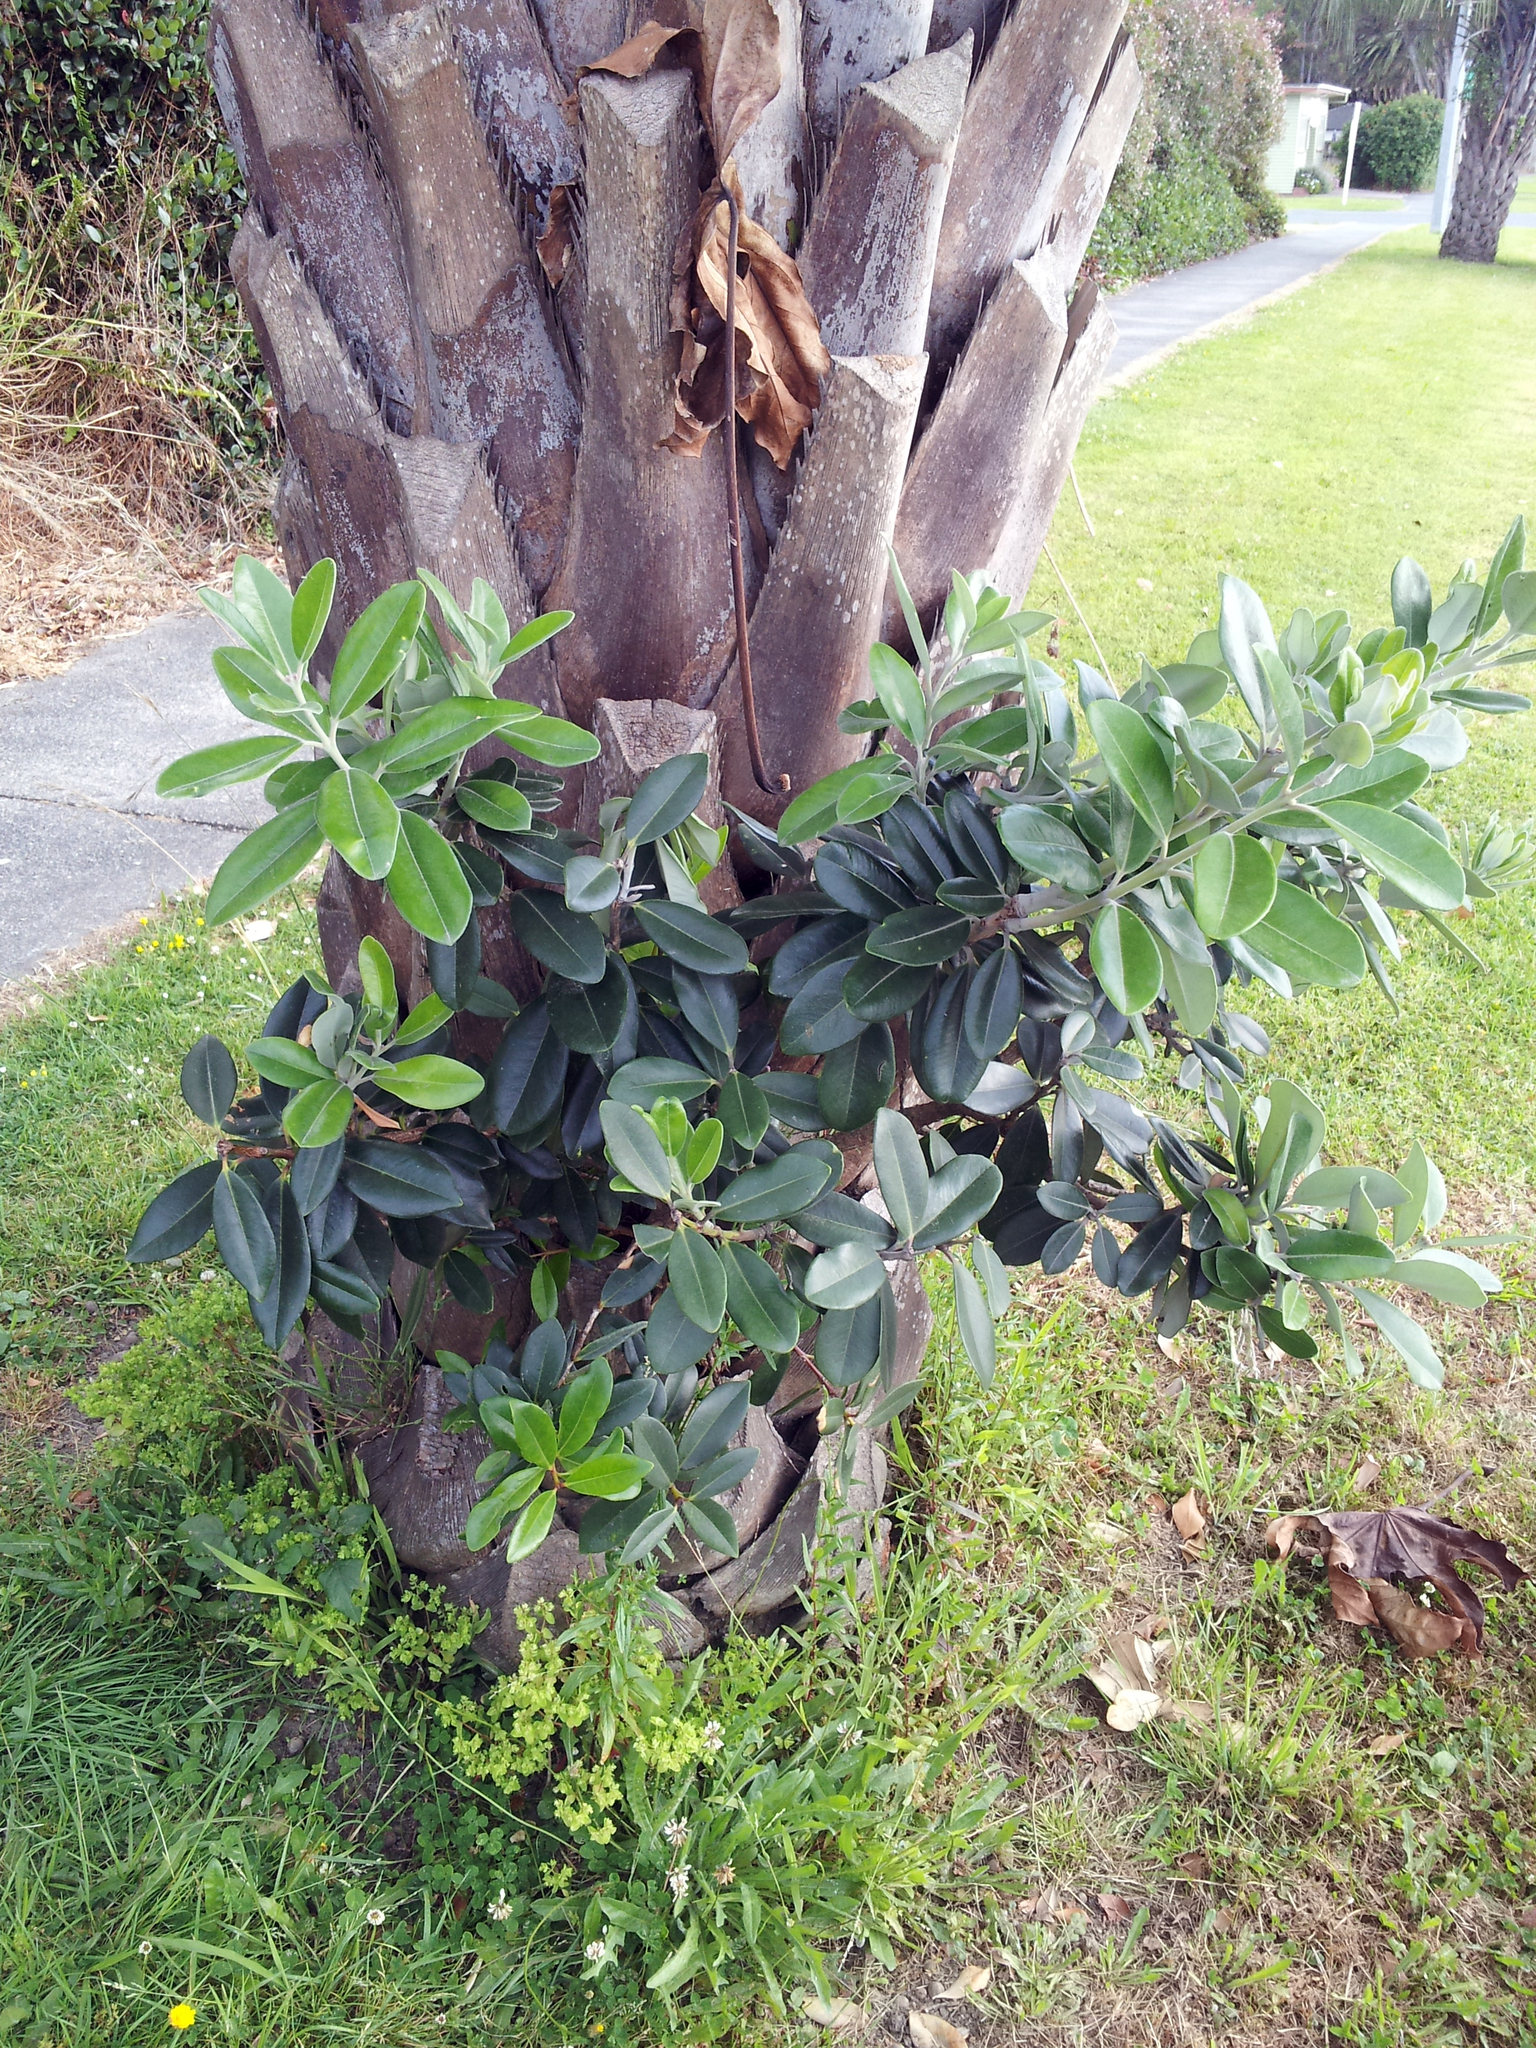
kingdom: Plantae
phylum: Tracheophyta
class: Magnoliopsida
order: Myrtales
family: Myrtaceae
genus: Metrosideros
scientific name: Metrosideros excelsa
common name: New zealand christmastree
